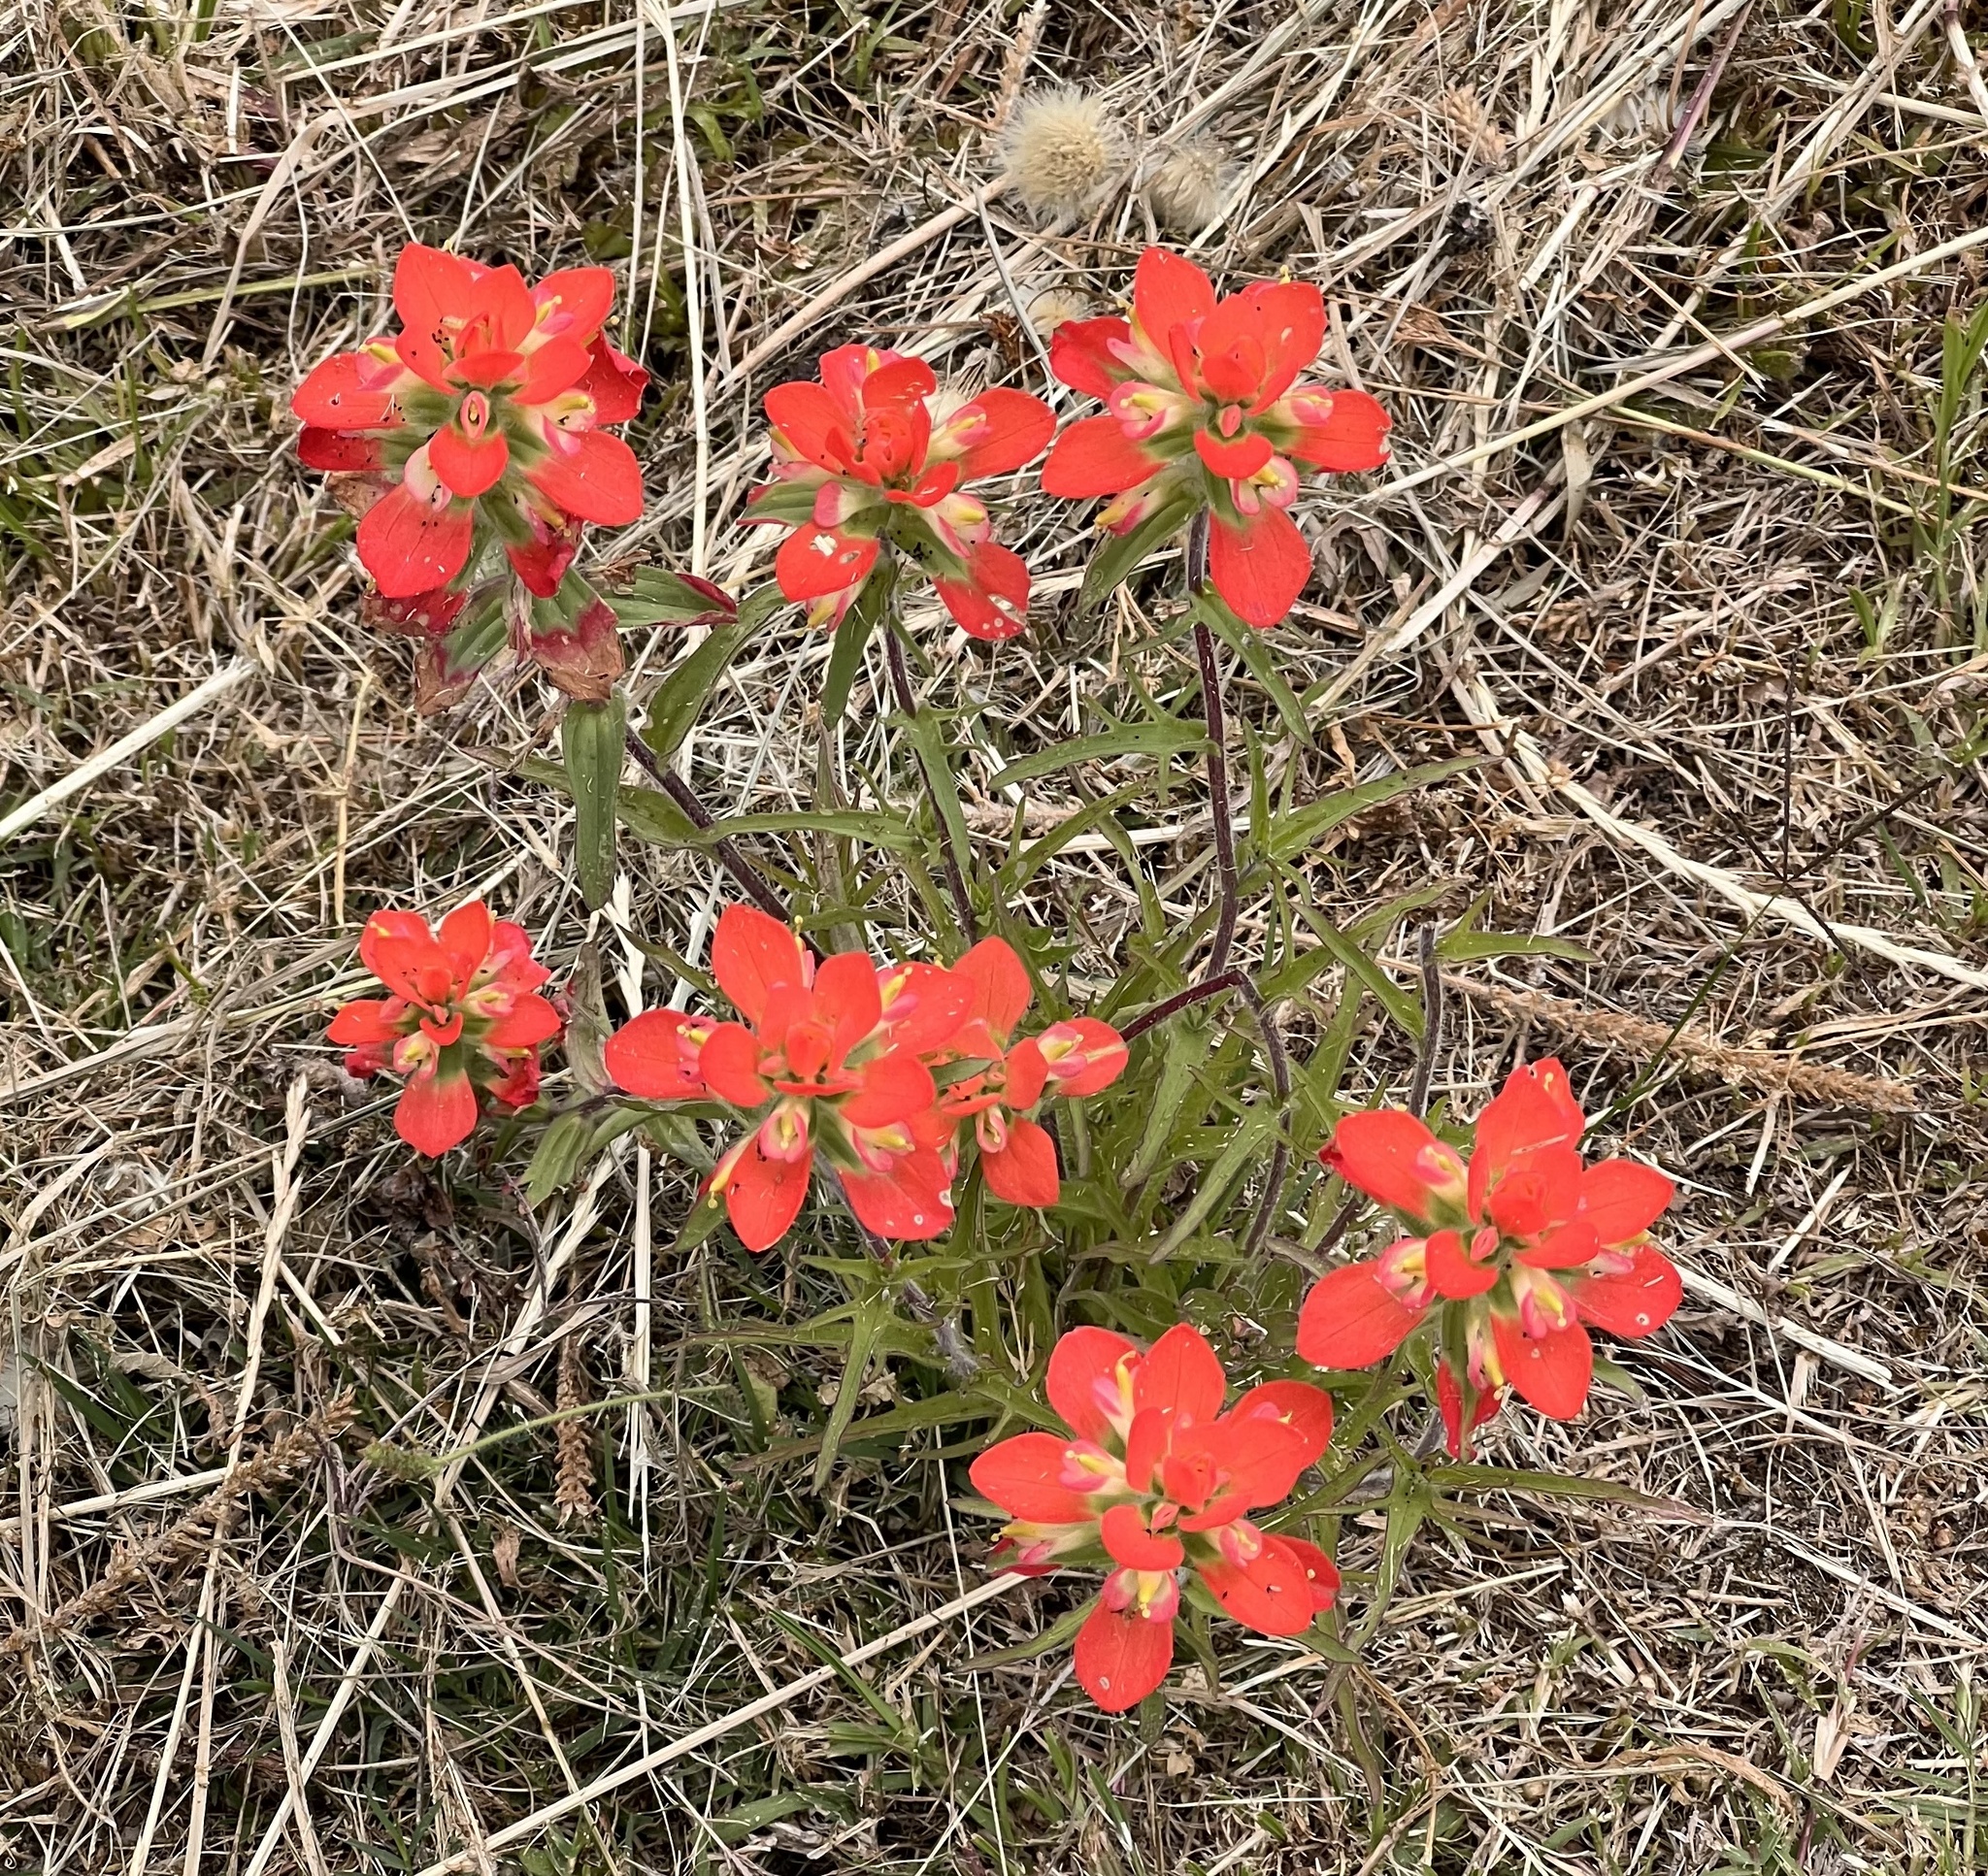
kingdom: Plantae
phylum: Tracheophyta
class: Magnoliopsida
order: Lamiales
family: Orobanchaceae
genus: Castilleja
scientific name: Castilleja indivisa
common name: Texas paintbrush
